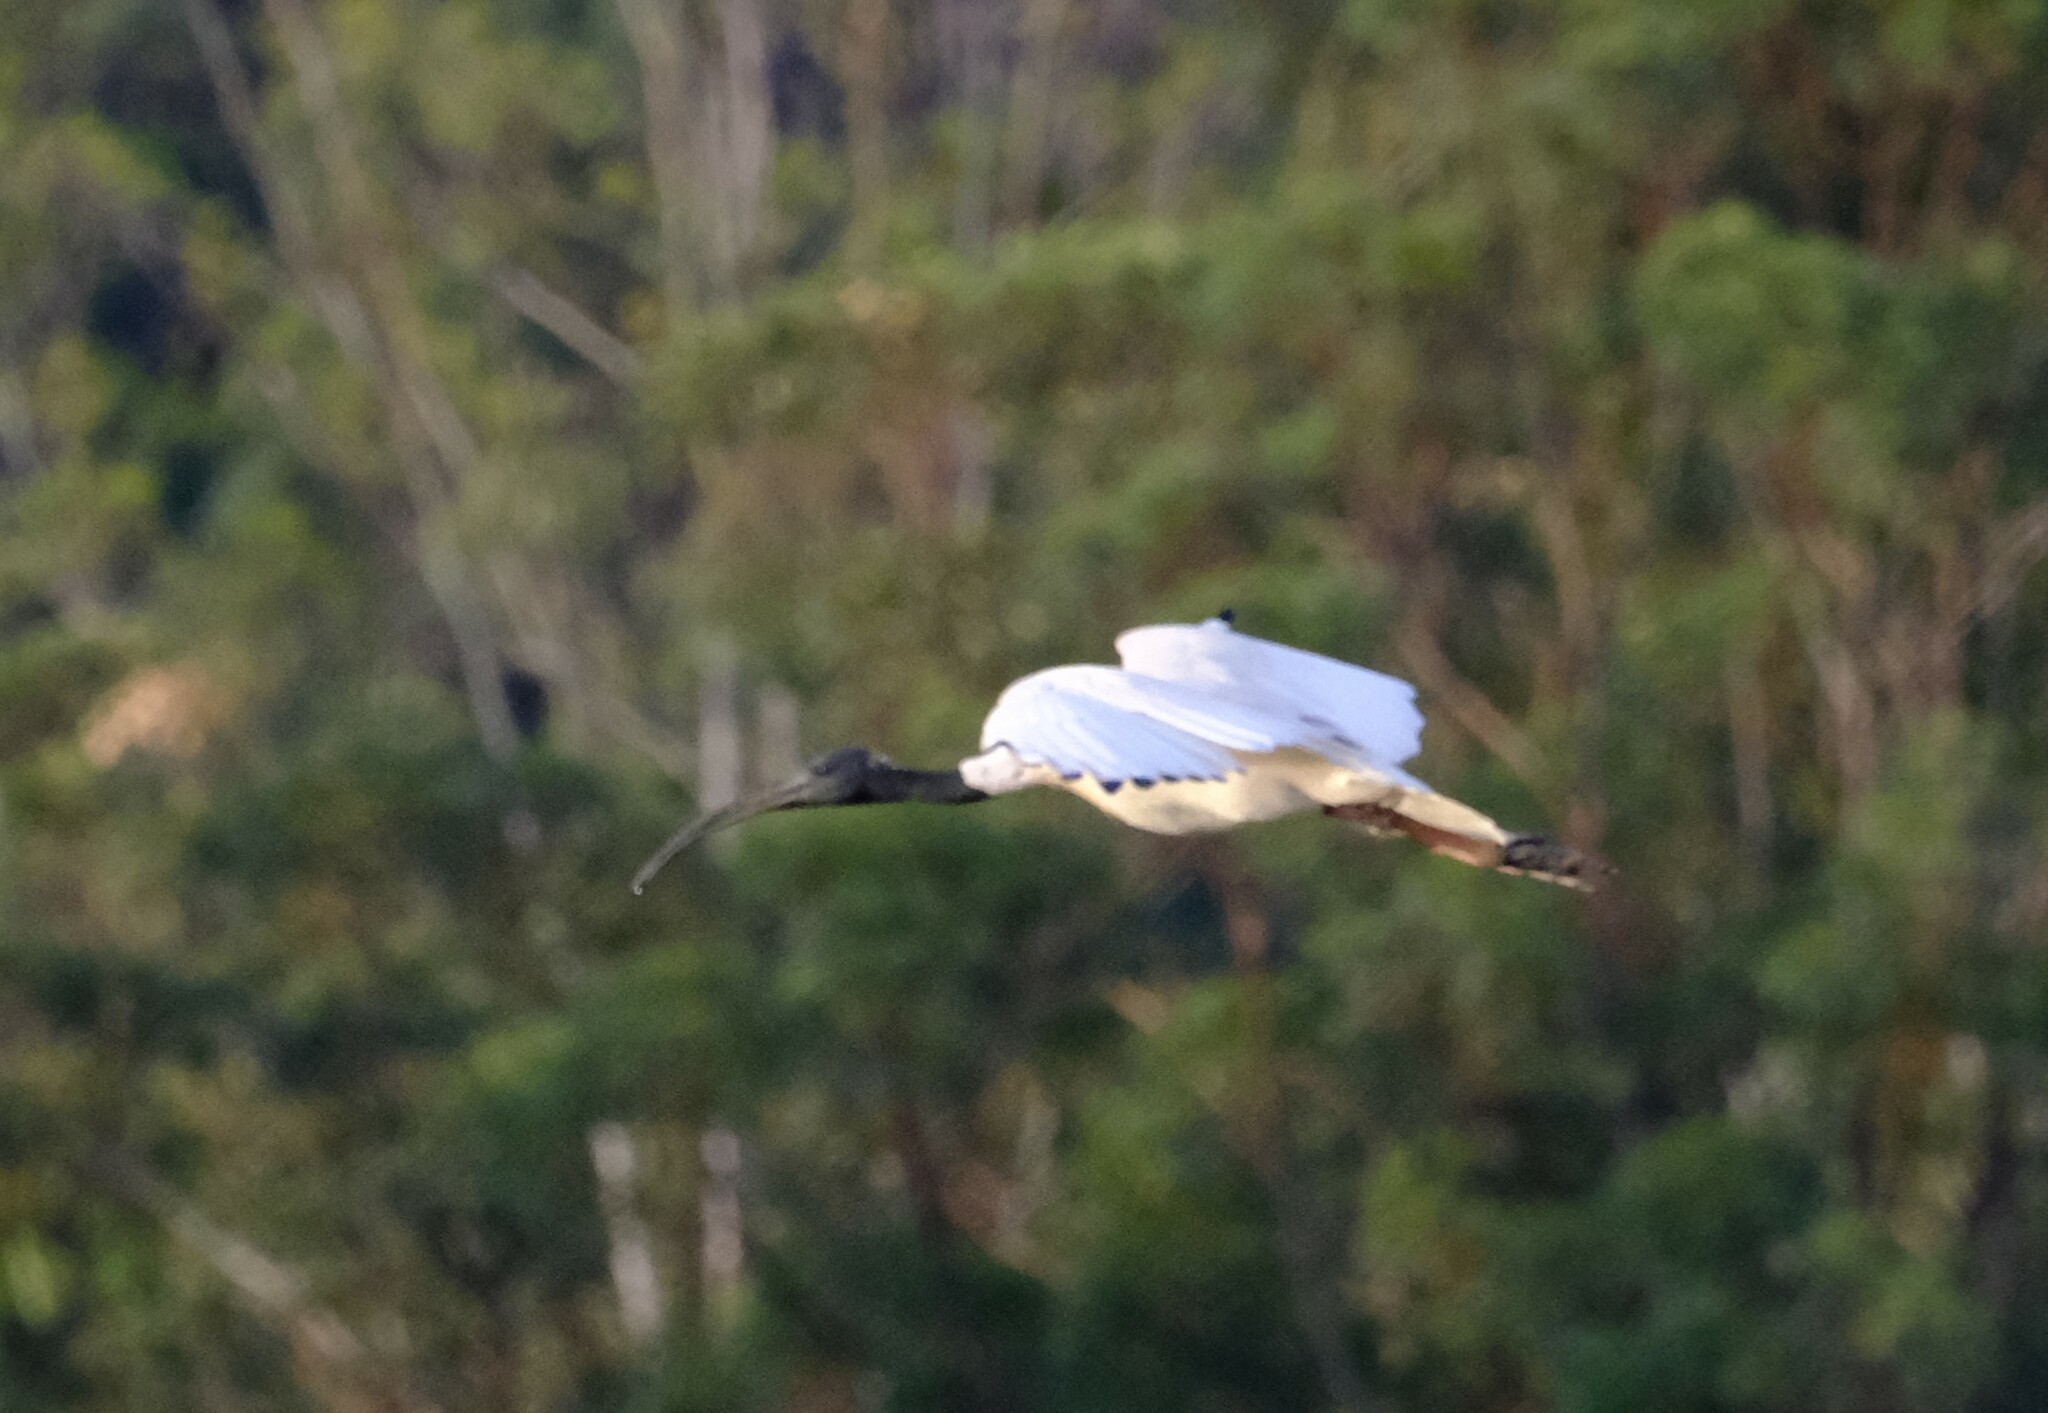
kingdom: Animalia
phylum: Chordata
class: Aves
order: Pelecaniformes
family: Threskiornithidae
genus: Threskiornis
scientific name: Threskiornis molucca
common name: Australian white ibis
